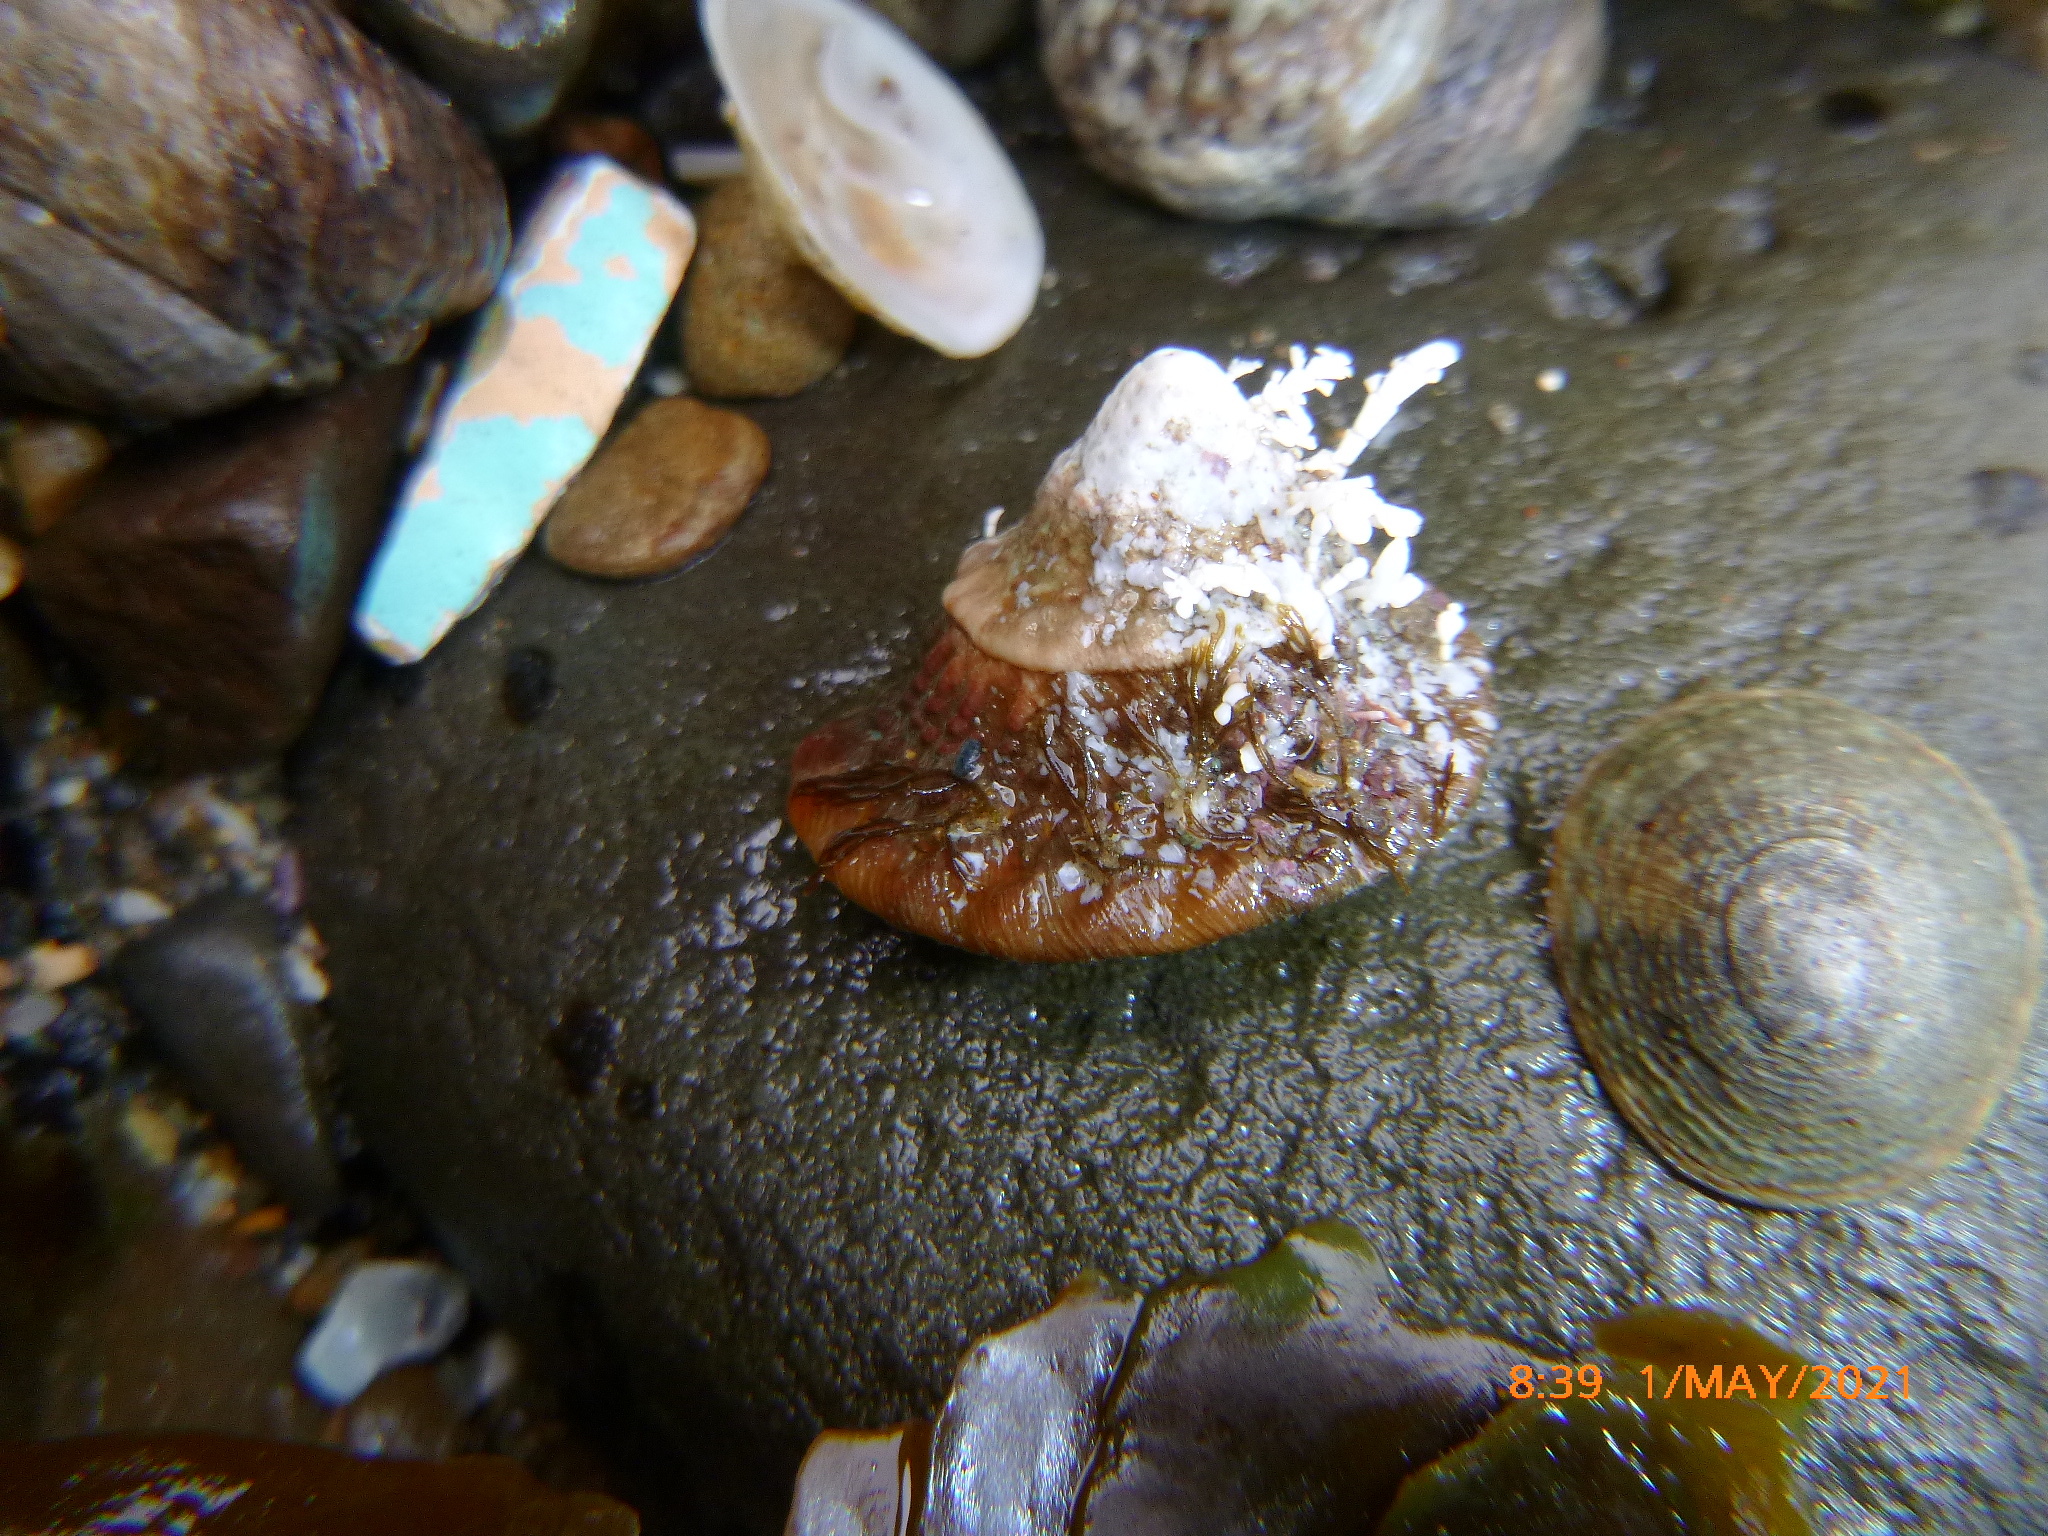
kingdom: Animalia
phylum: Mollusca
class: Gastropoda
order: Trochida
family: Turbinidae
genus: Megastraea
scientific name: Megastraea undosa
